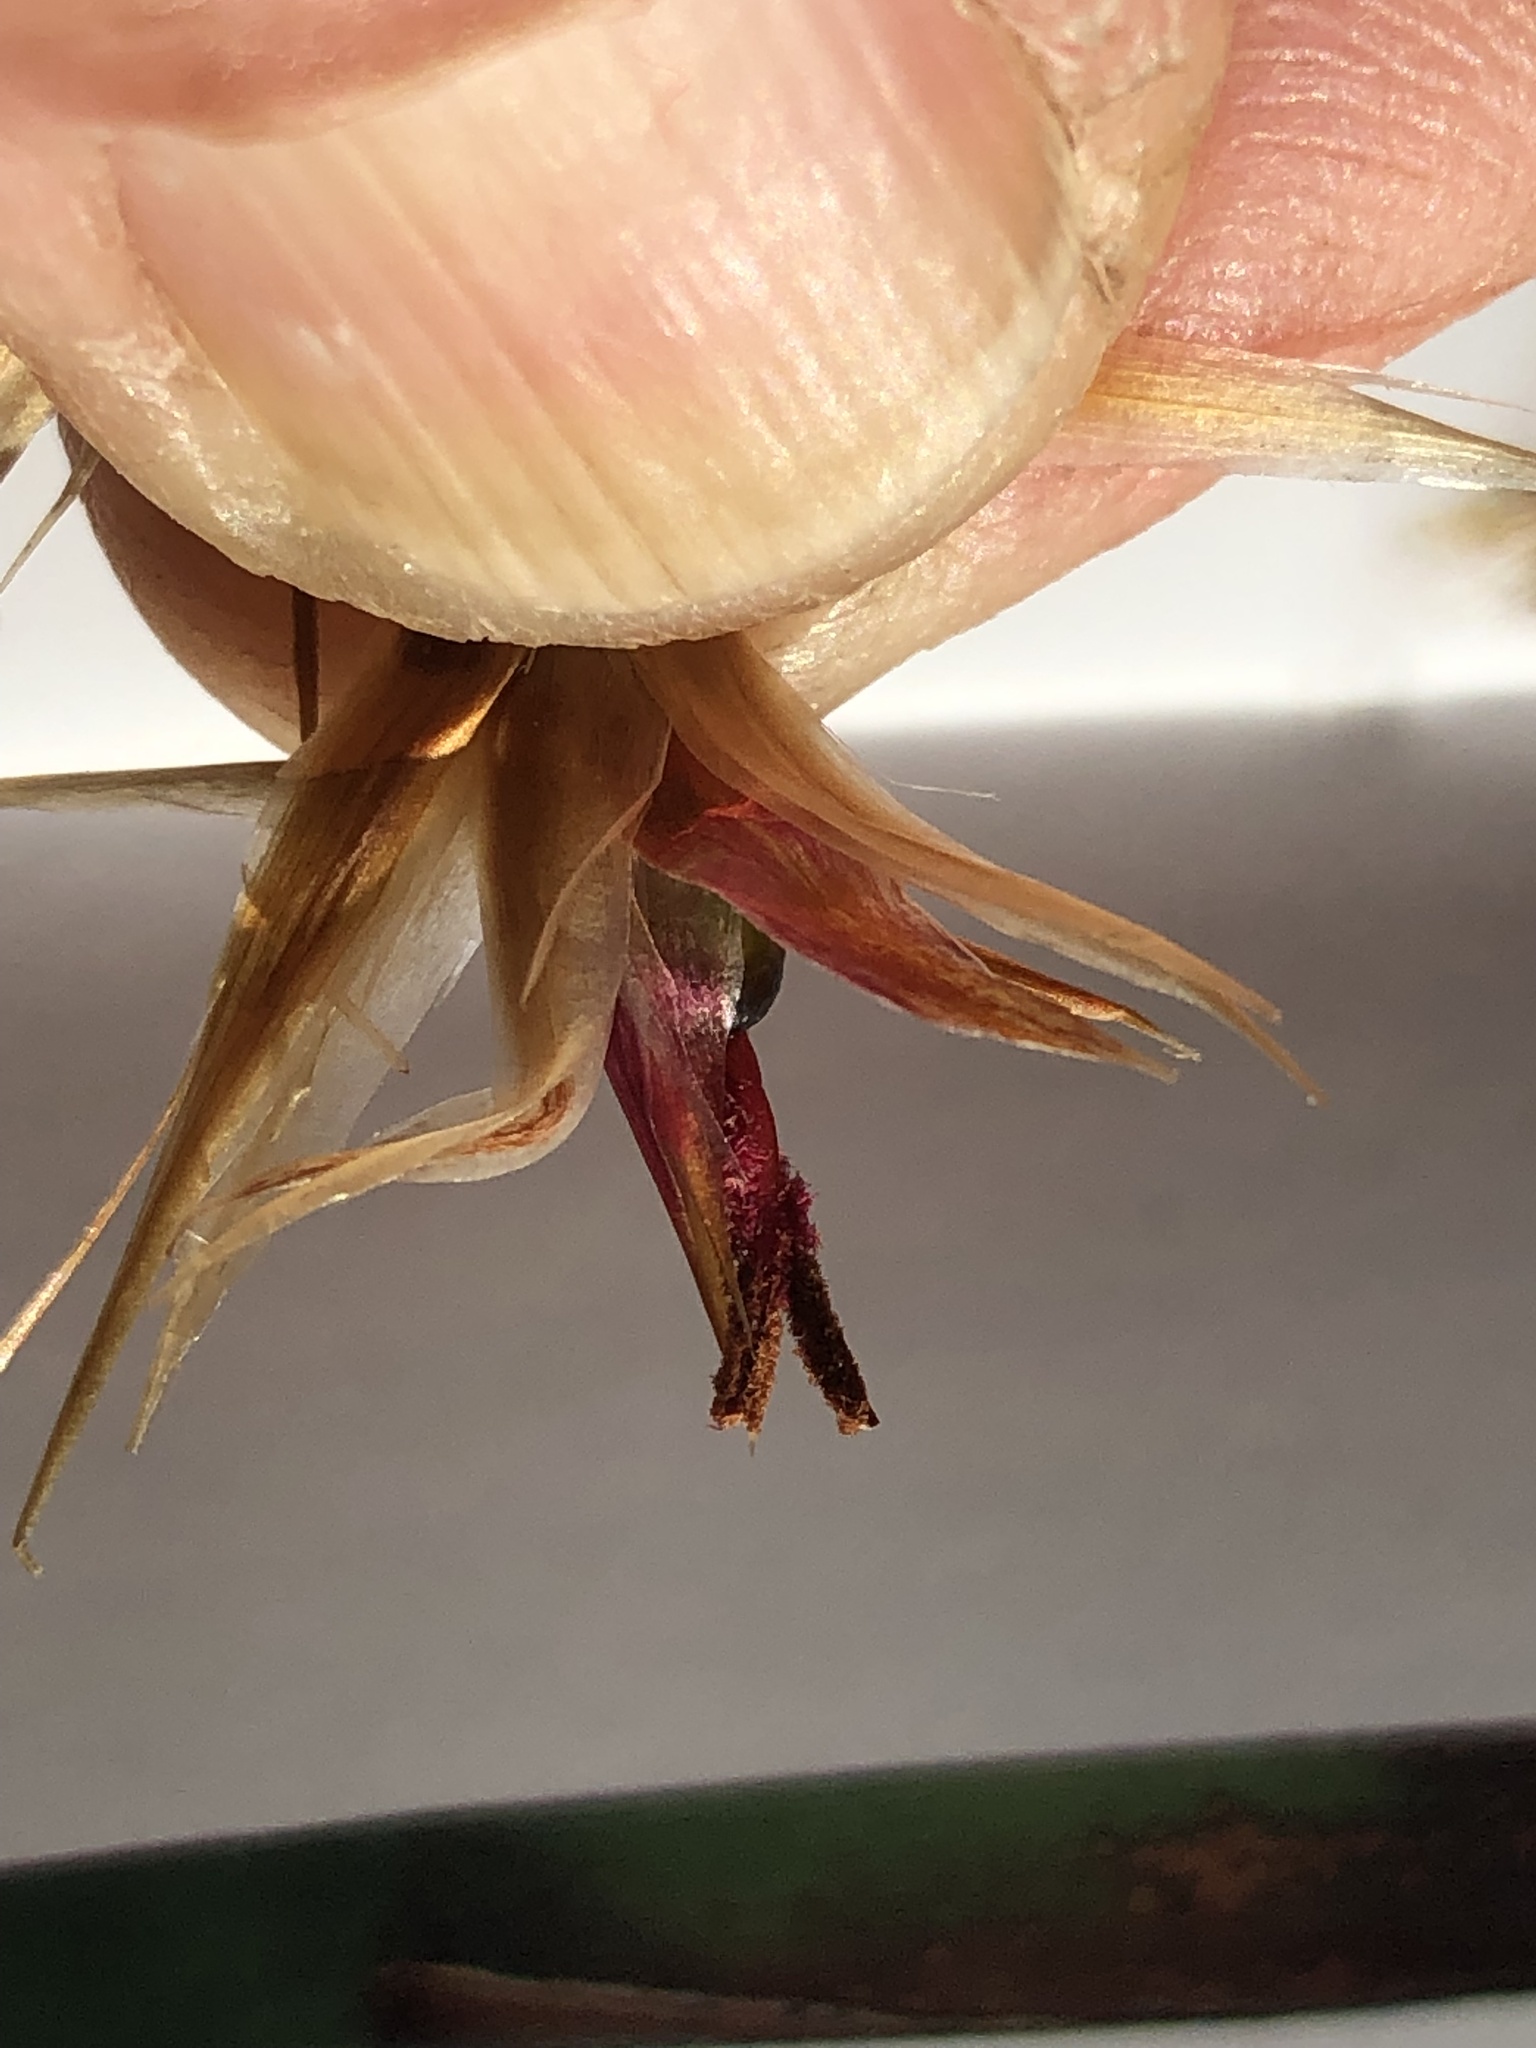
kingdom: Plantae
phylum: Tracheophyta
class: Liliopsida
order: Poales
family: Restionaceae
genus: Hypodiscus
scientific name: Hypodiscus argenteus
